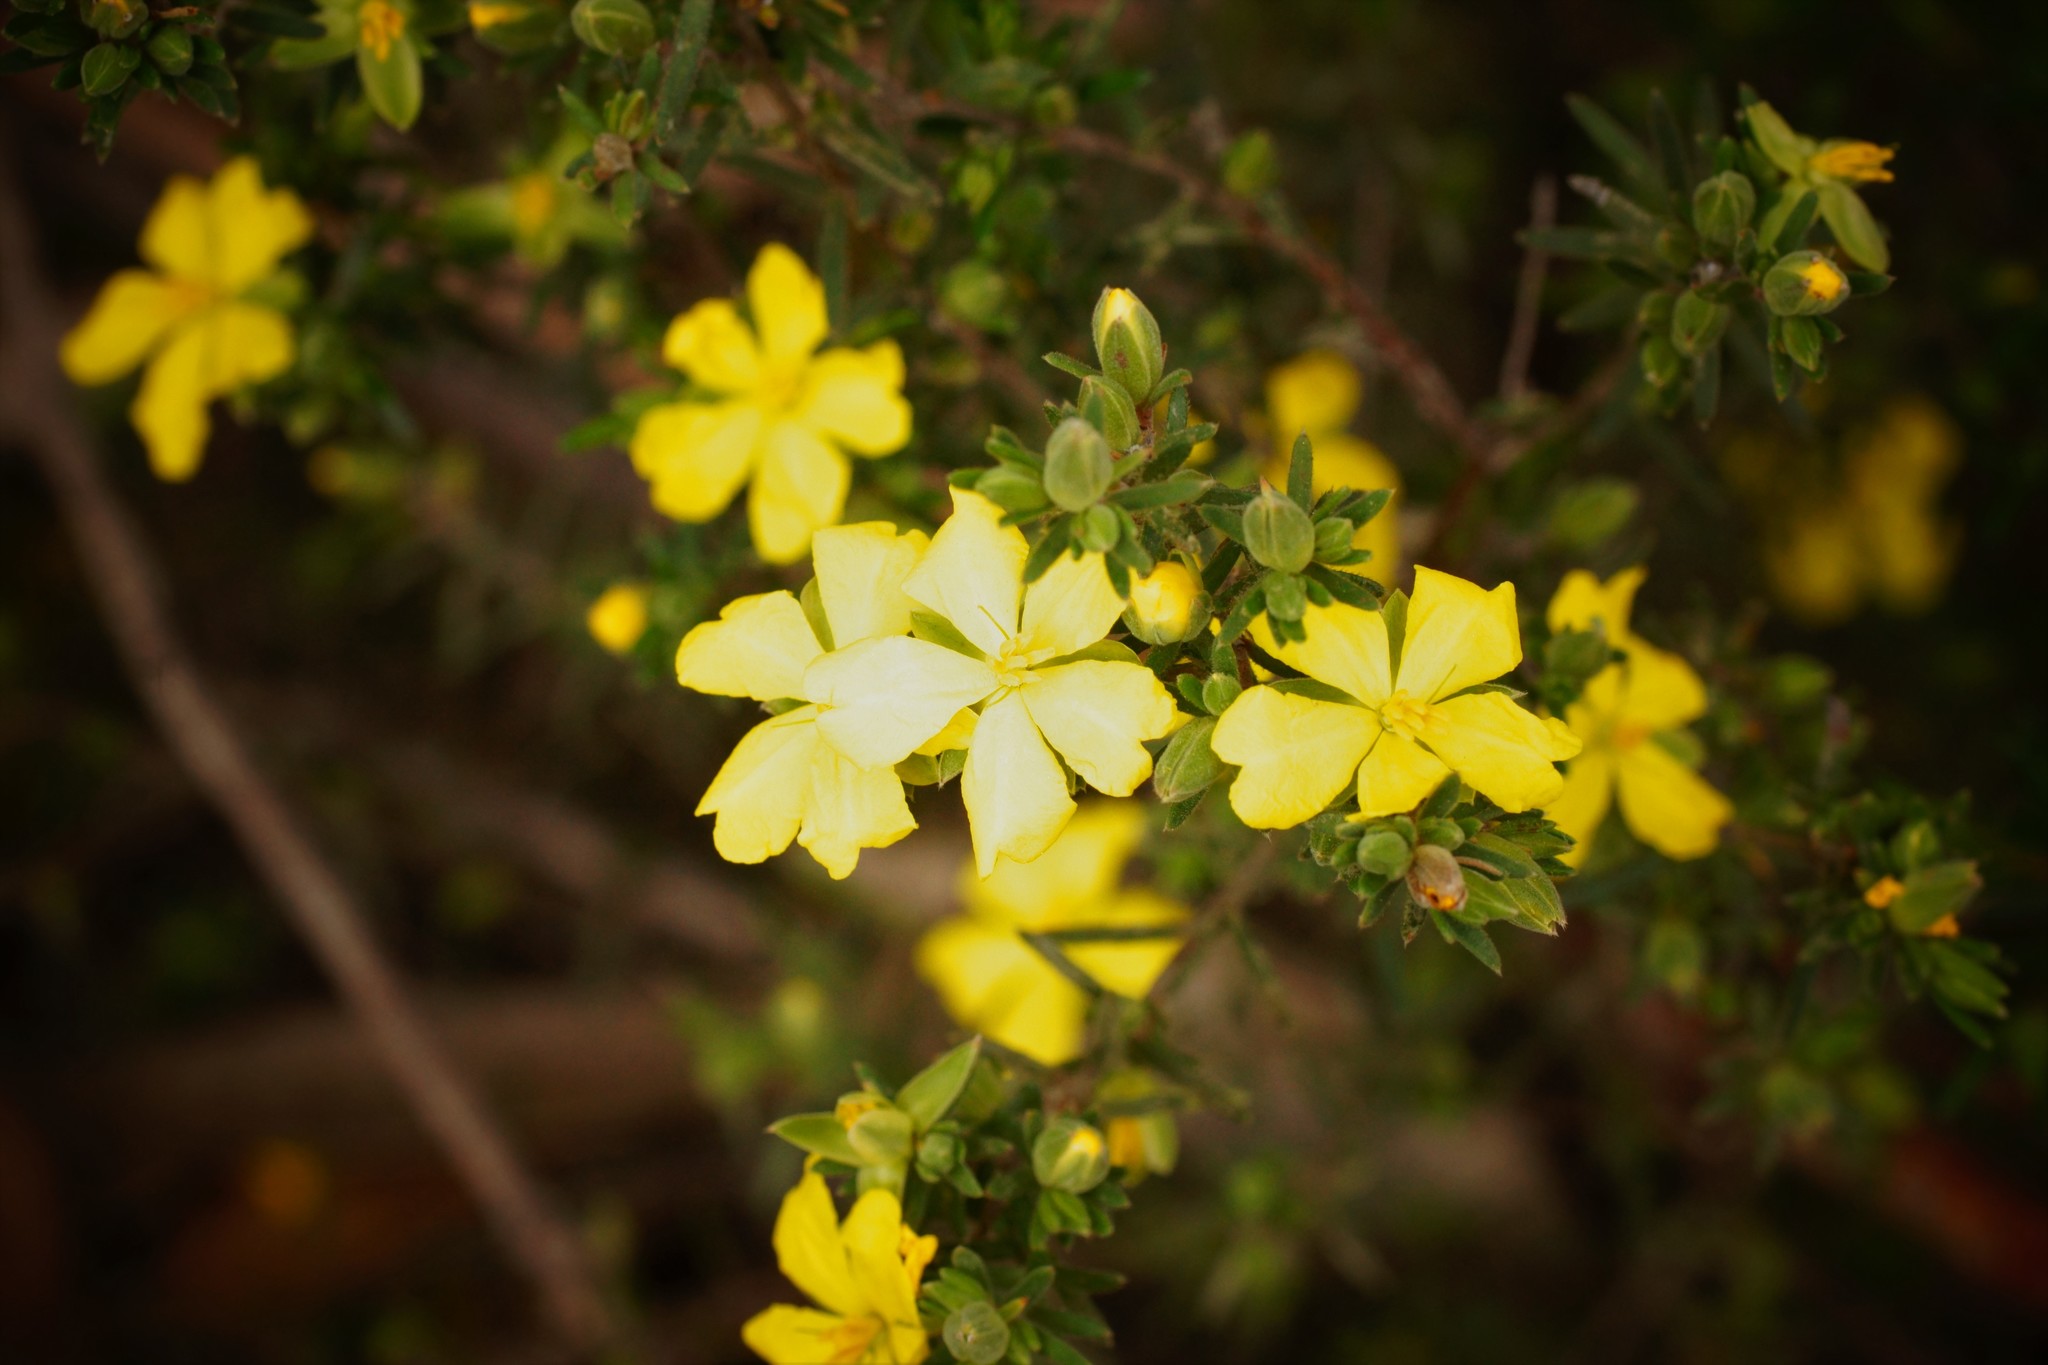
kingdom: Plantae
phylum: Tracheophyta
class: Magnoliopsida
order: Dilleniales
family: Dilleniaceae
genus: Hibbertia
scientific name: Hibbertia riparia
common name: Erect guinea-flower
